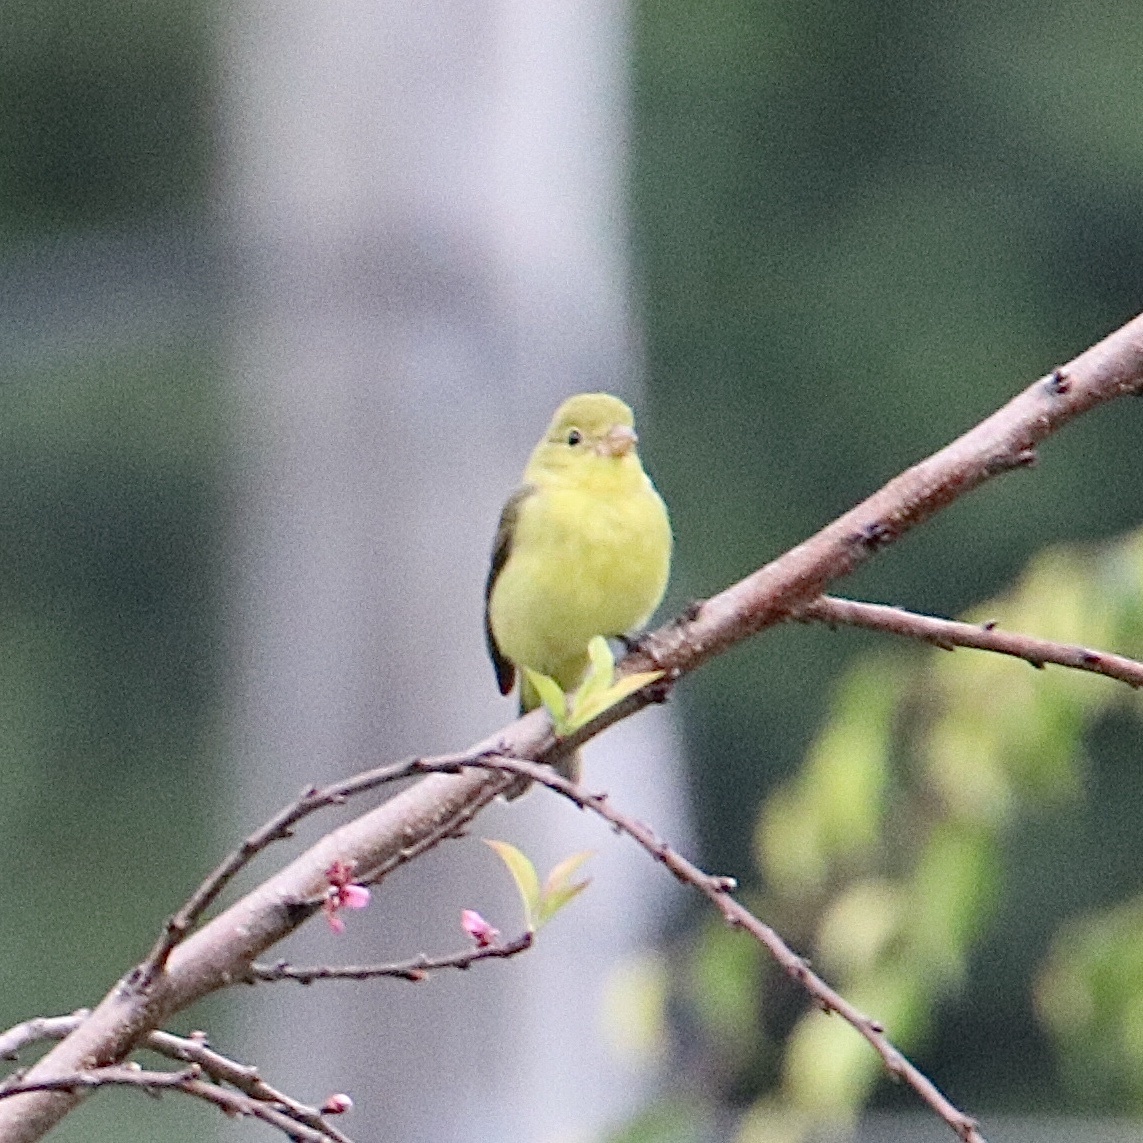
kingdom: Animalia
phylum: Chordata
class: Aves
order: Passeriformes
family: Cardinalidae
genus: Piranga
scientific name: Piranga olivacea
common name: Scarlet tanager
